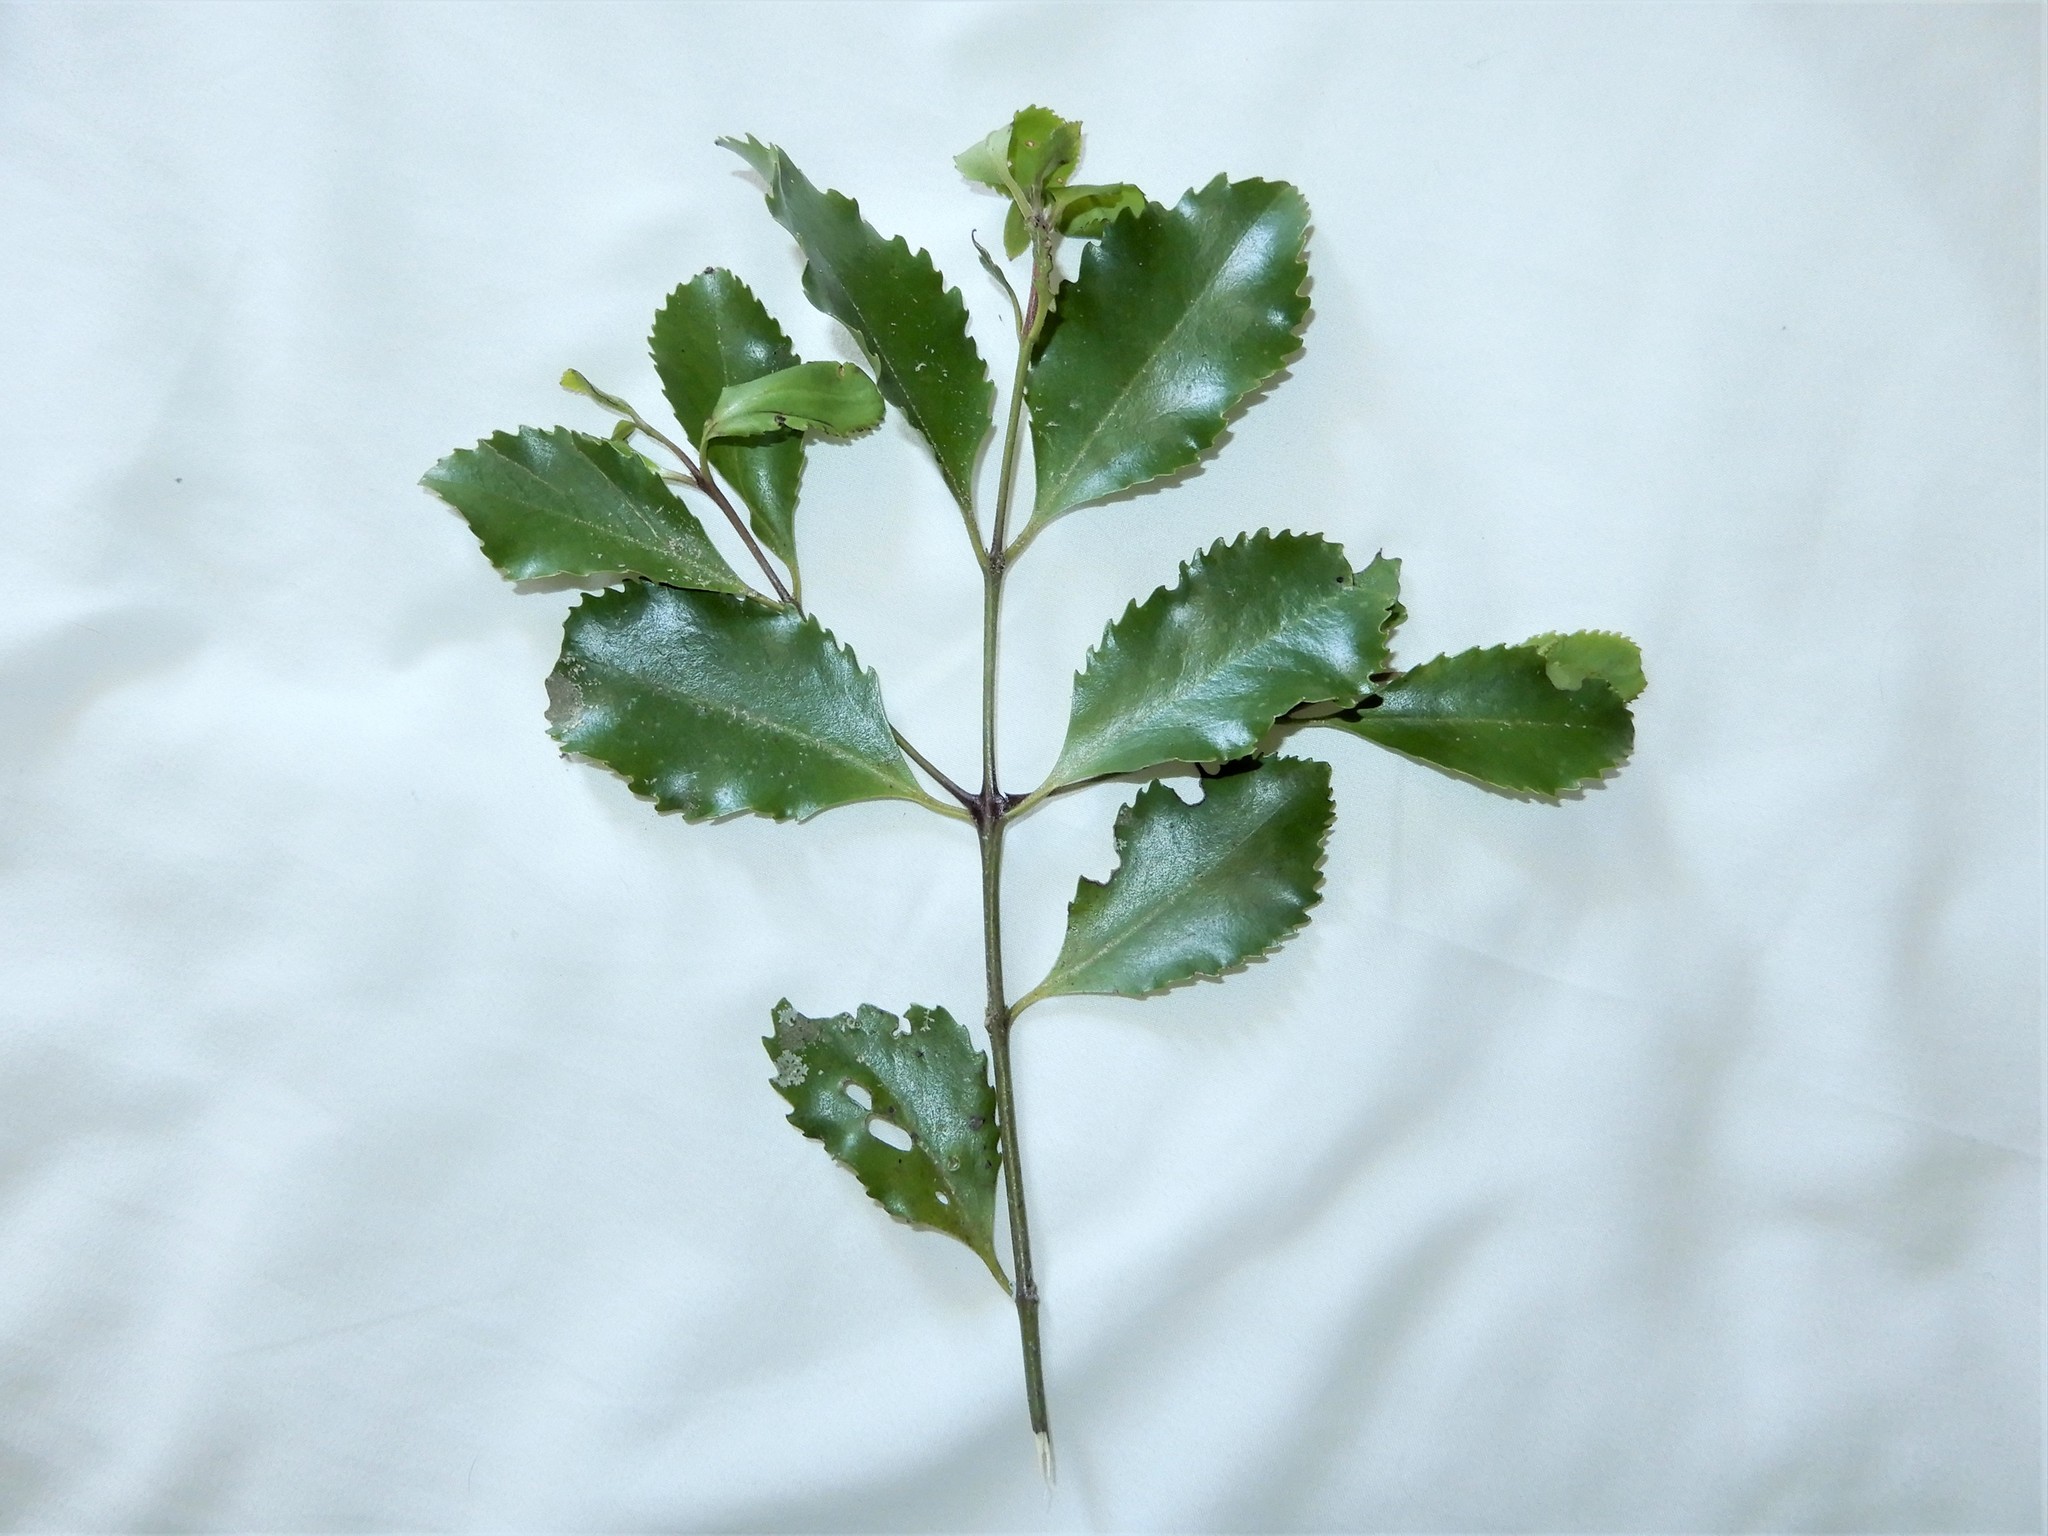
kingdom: Plantae
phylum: Tracheophyta
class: Magnoliopsida
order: Laurales
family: Atherospermataceae
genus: Laurelia
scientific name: Laurelia novae-zelandiae
